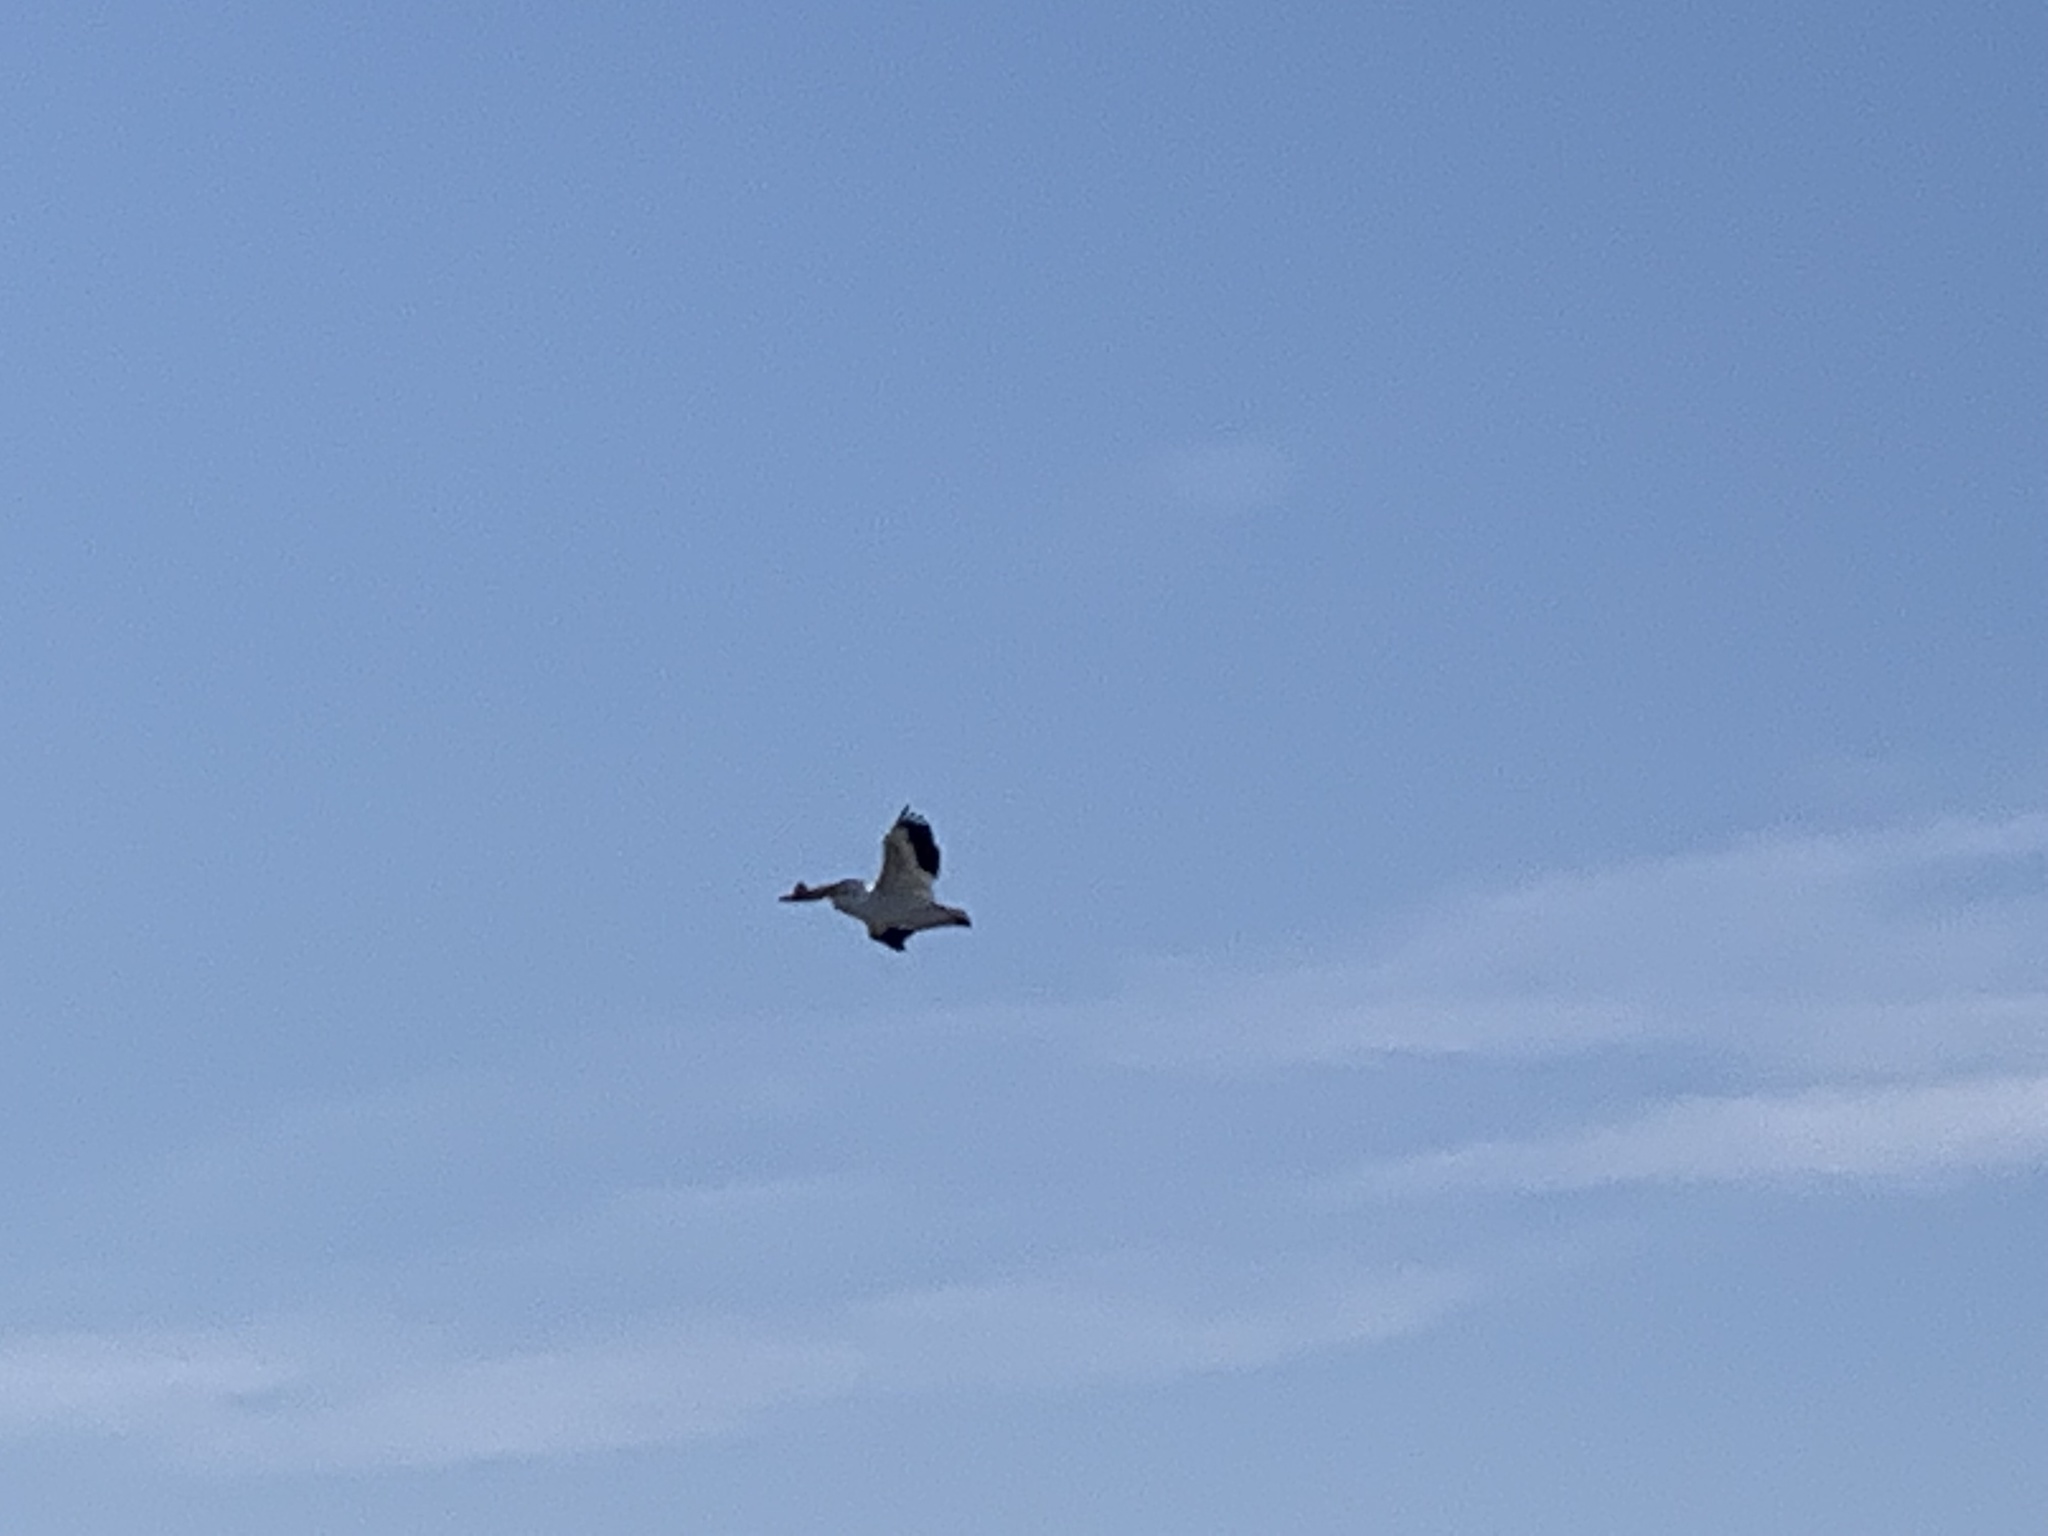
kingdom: Animalia
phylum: Chordata
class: Aves
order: Pelecaniformes
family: Pelecanidae
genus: Pelecanus
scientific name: Pelecanus erythrorhynchos
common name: American white pelican
